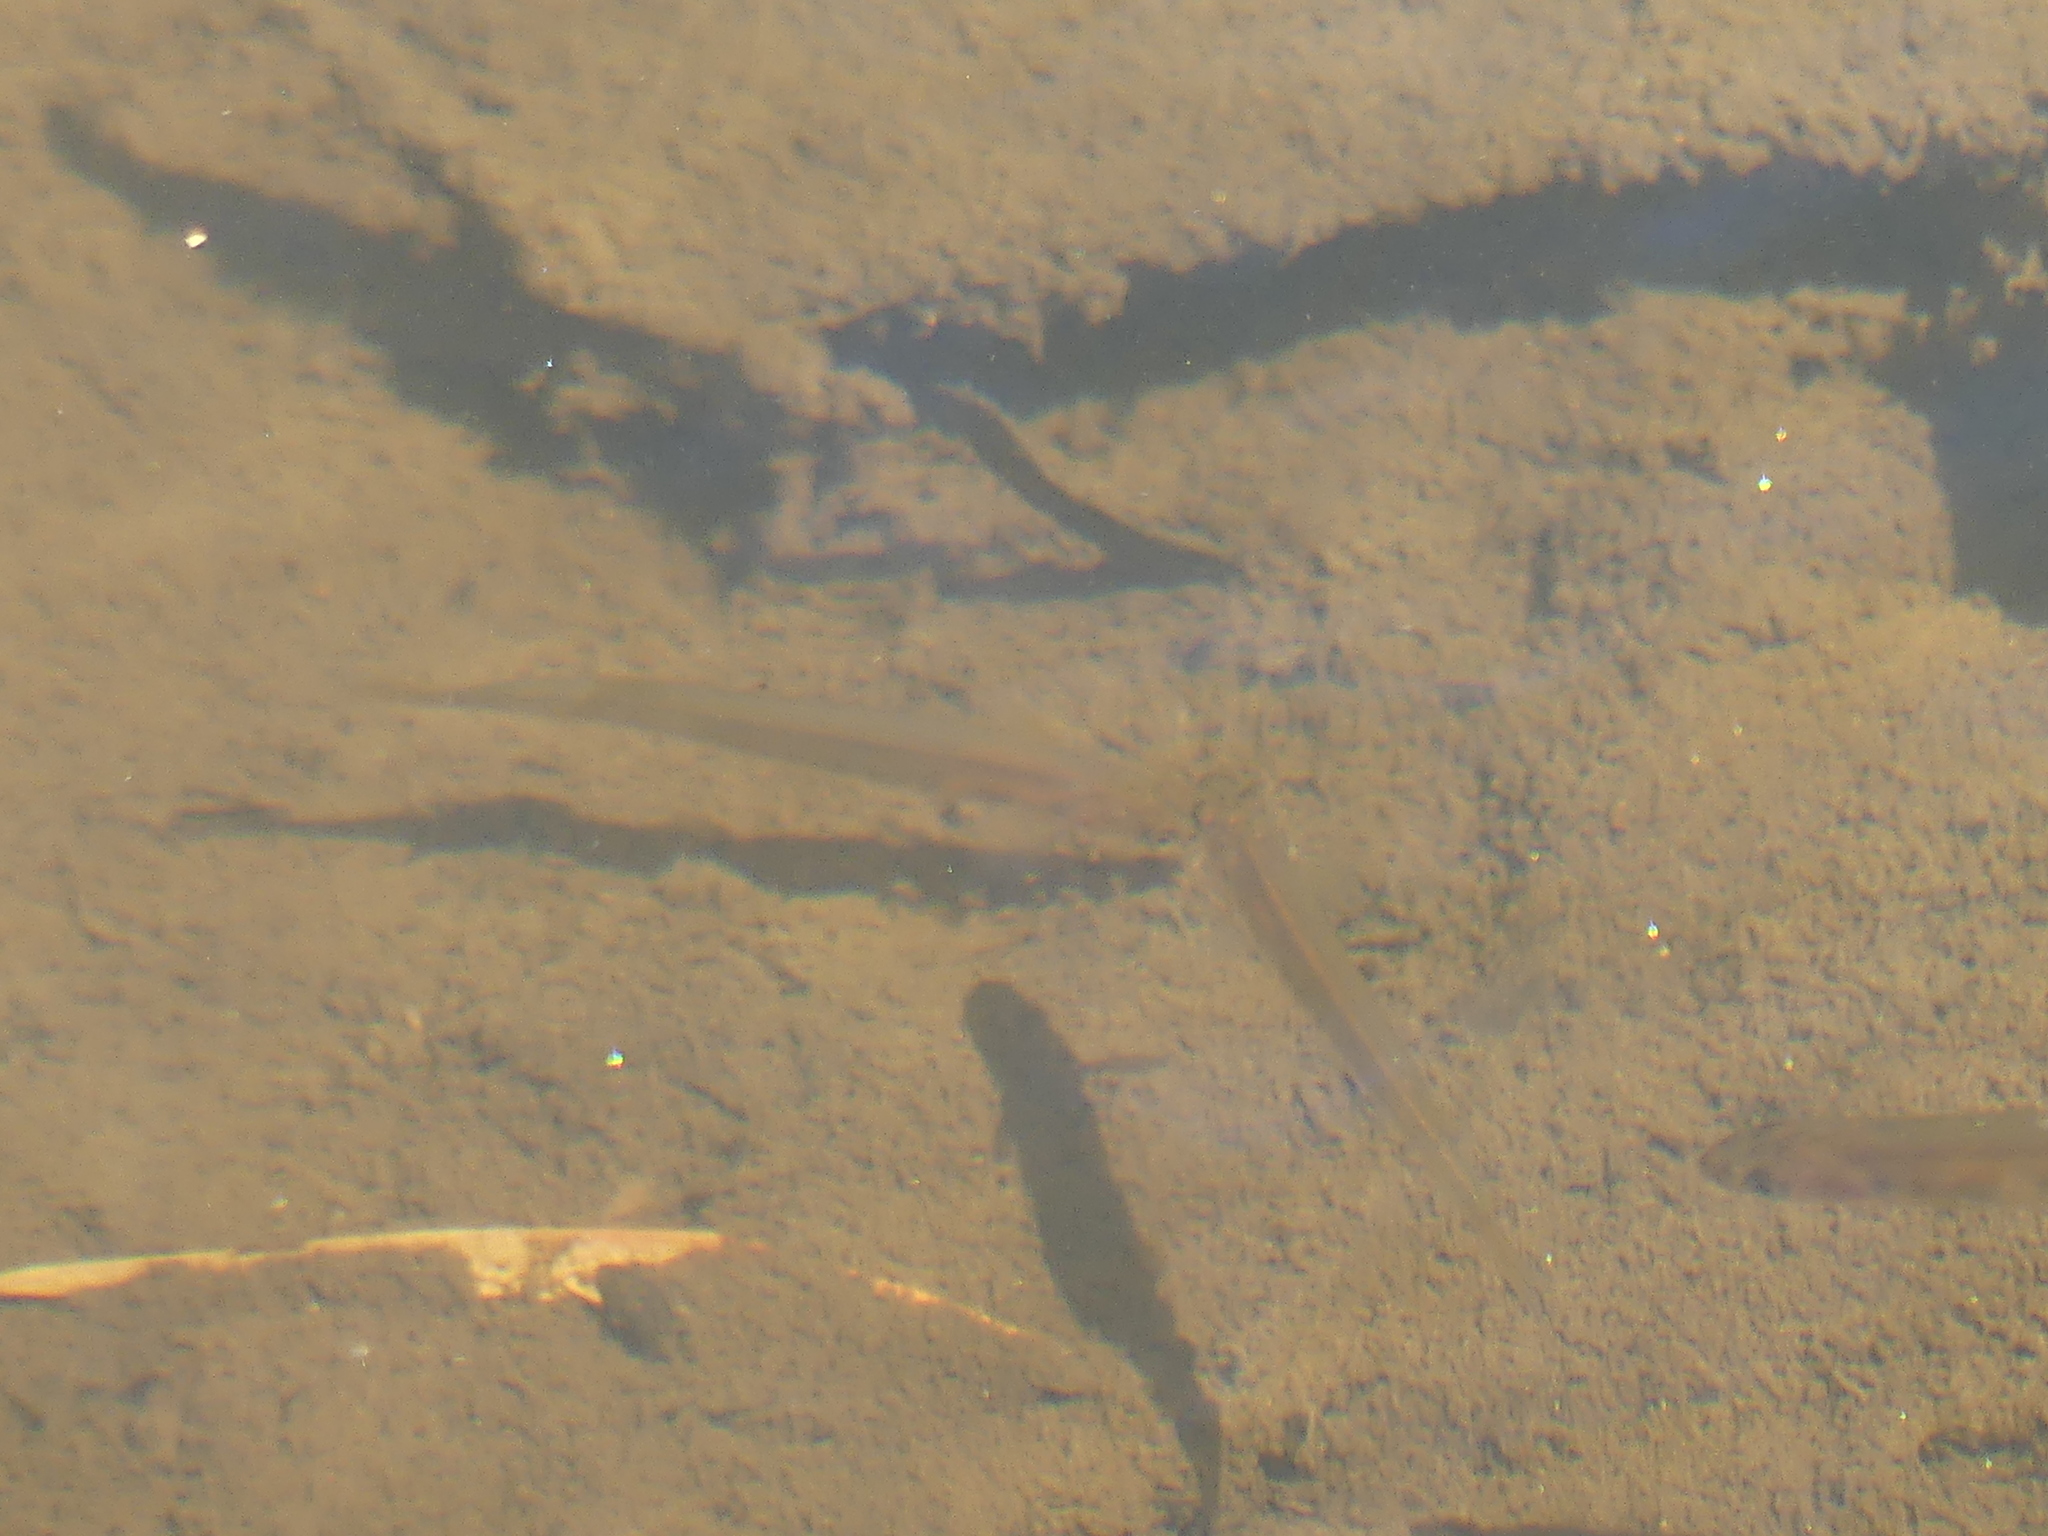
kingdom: Animalia
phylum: Chordata
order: Osmeriformes
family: Galaxiidae
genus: Galaxias
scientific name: Galaxias occidentalis
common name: Western minnow
